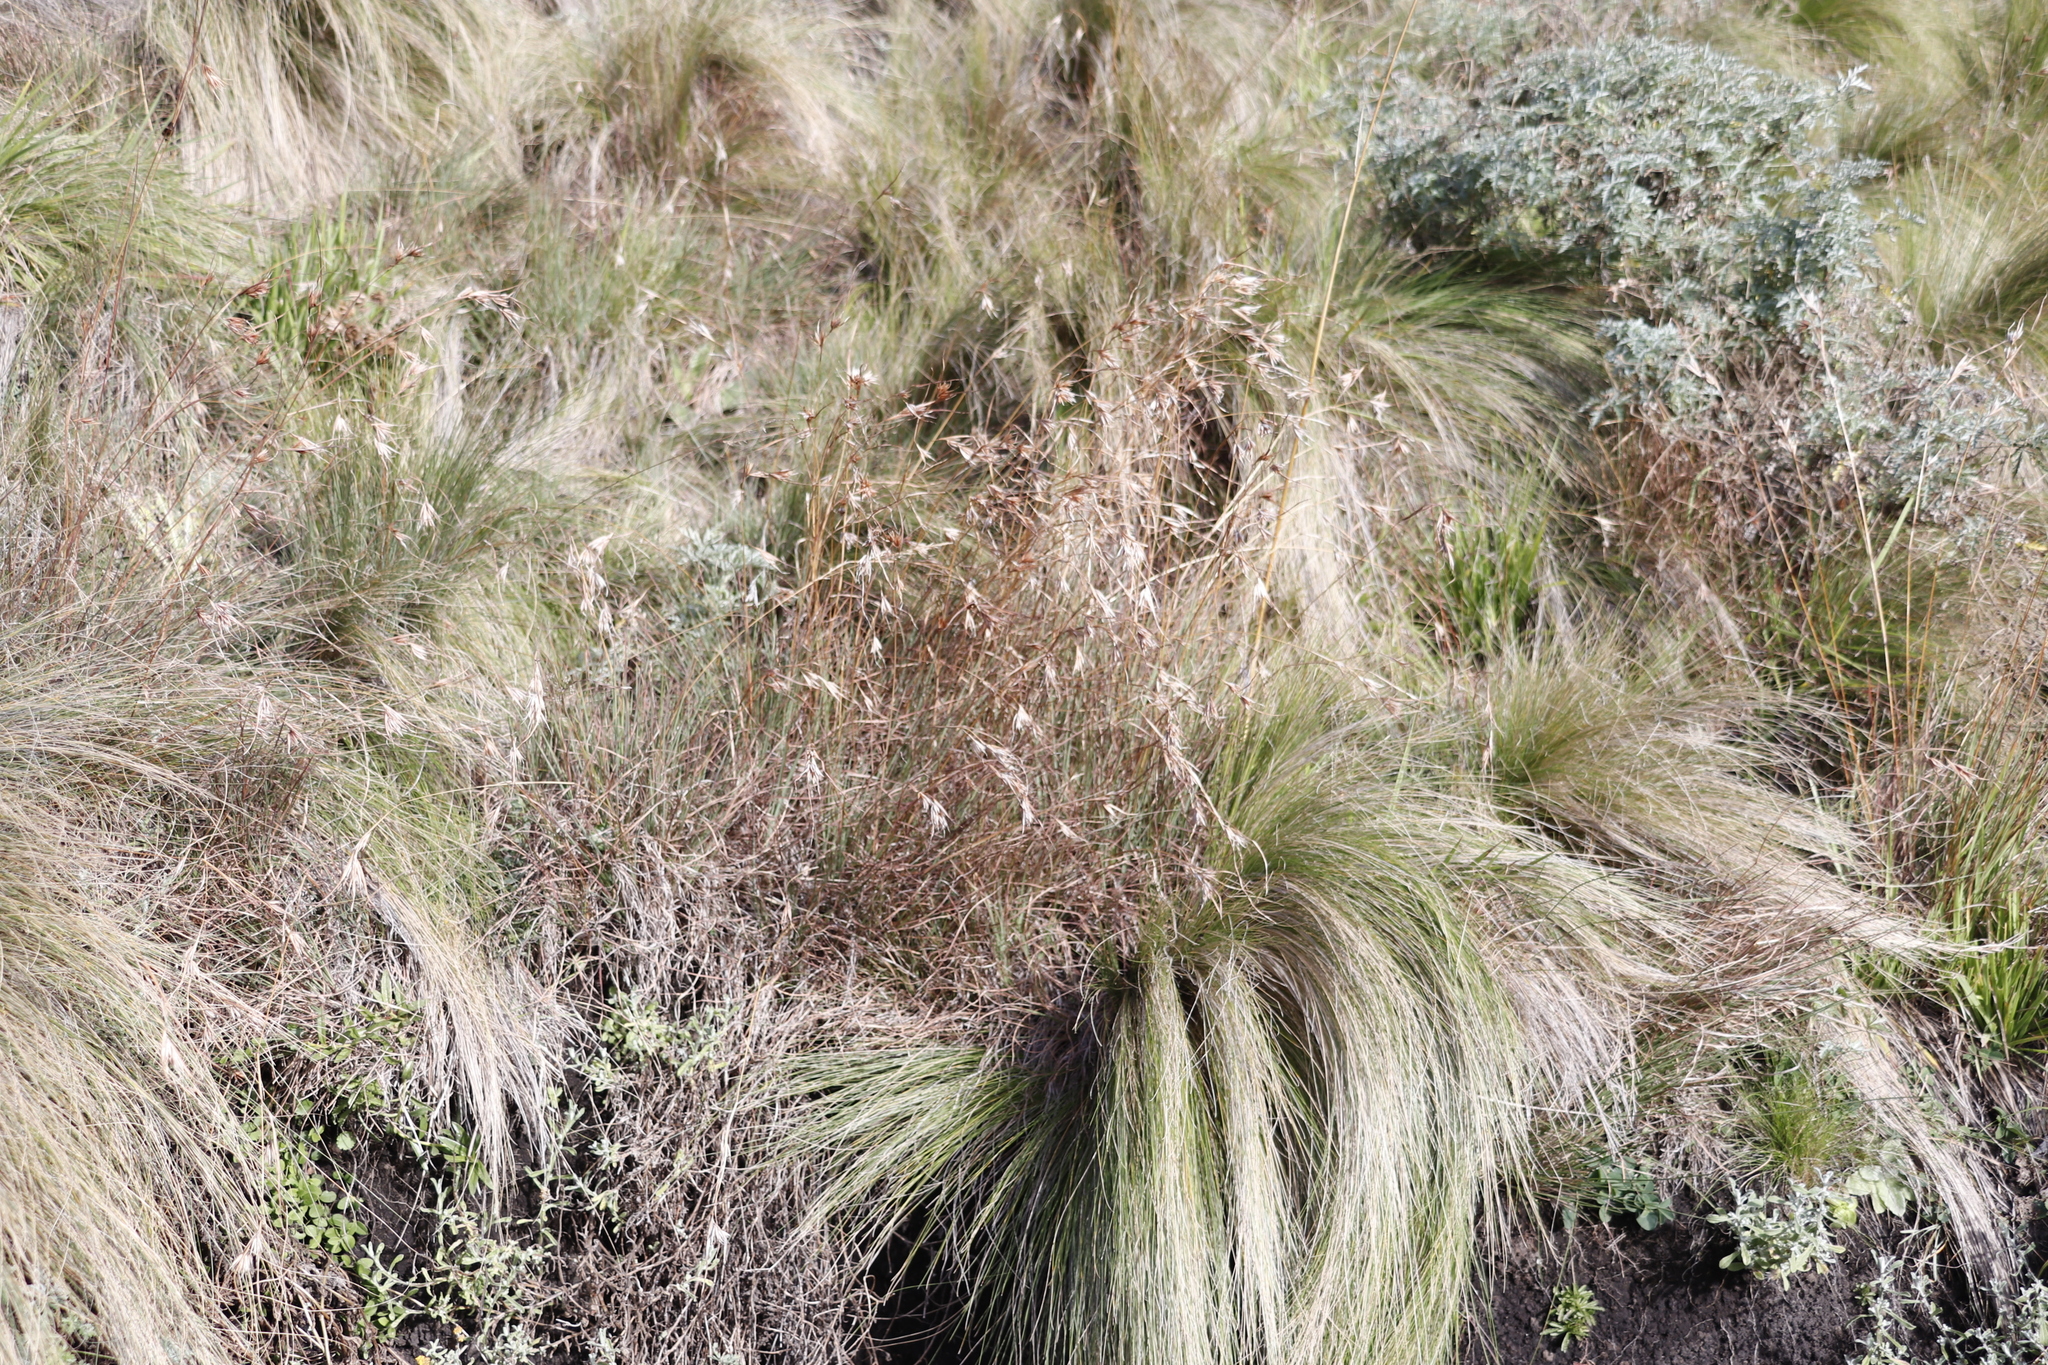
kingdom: Plantae
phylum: Tracheophyta
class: Liliopsida
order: Poales
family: Poaceae
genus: Themeda
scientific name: Themeda triandra
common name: Kangaroo grass
